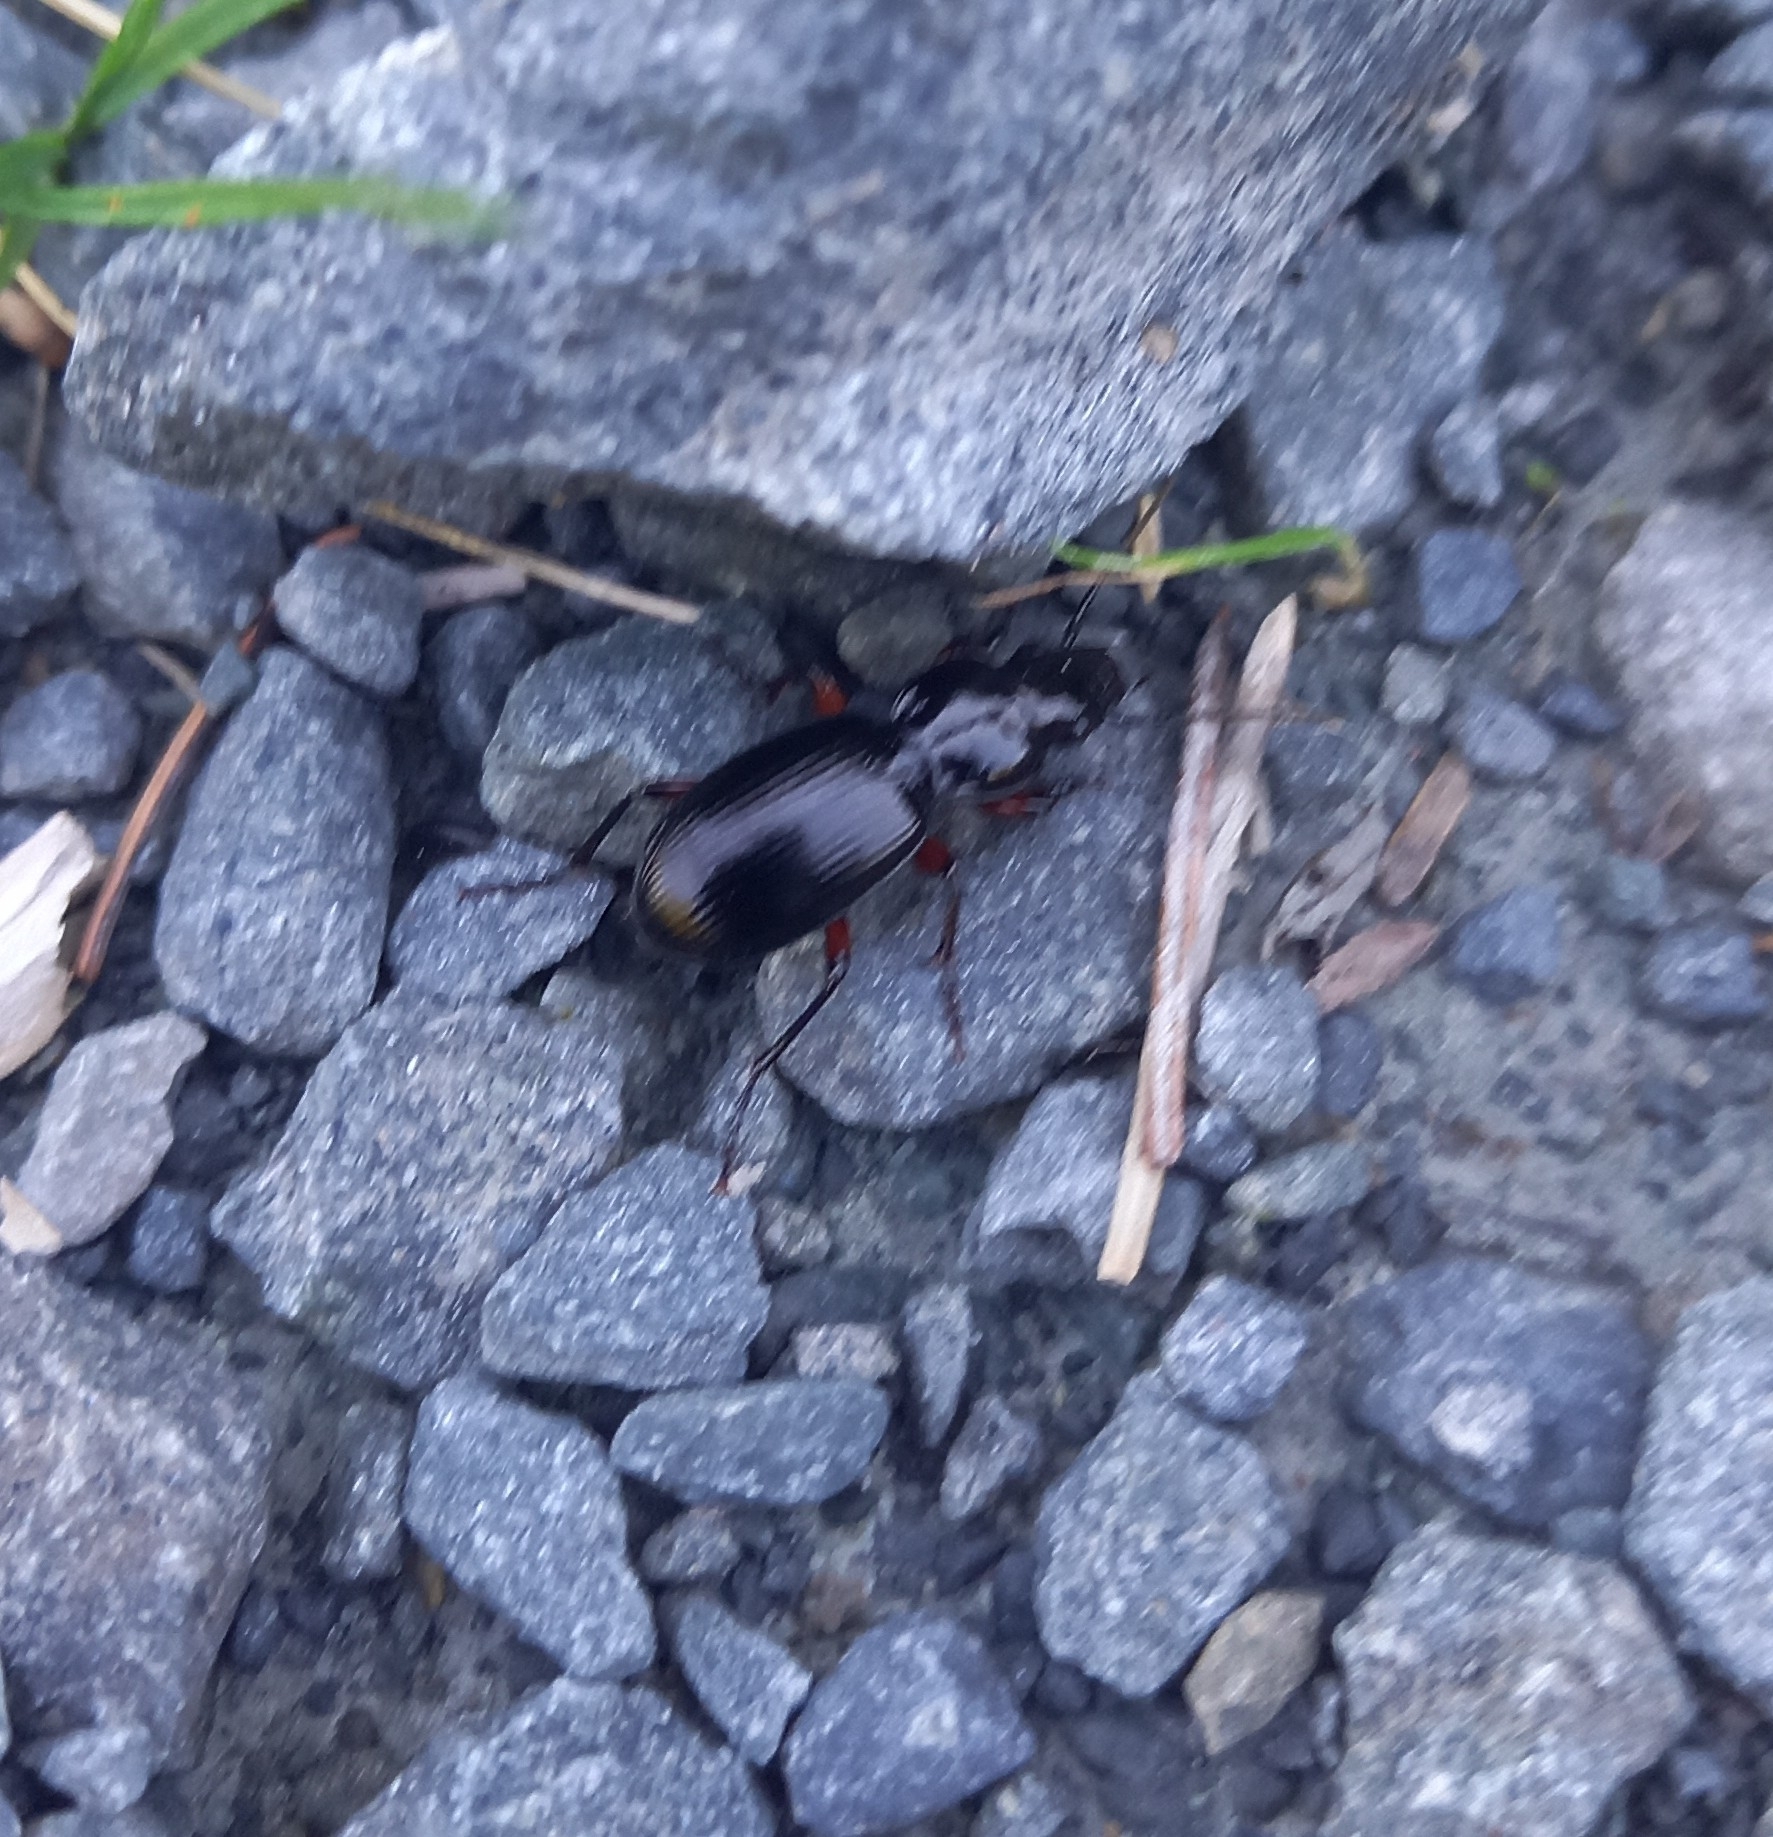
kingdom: Animalia
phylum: Arthropoda
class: Insecta
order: Coleoptera
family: Carabidae
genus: Pterostichus
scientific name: Pterostichus madidus
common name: Black clock
